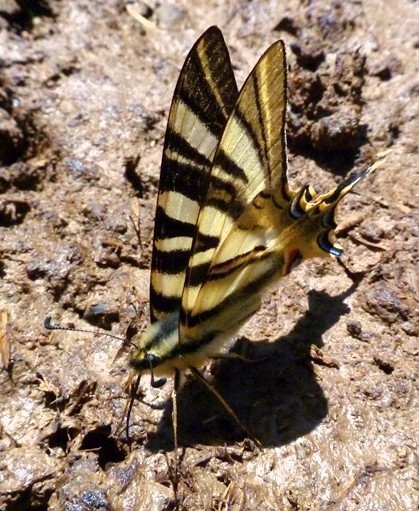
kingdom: Animalia
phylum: Arthropoda
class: Insecta
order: Lepidoptera
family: Papilionidae
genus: Iphiclides
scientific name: Iphiclides feisthamelii
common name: Iberian scarce swallowtail
